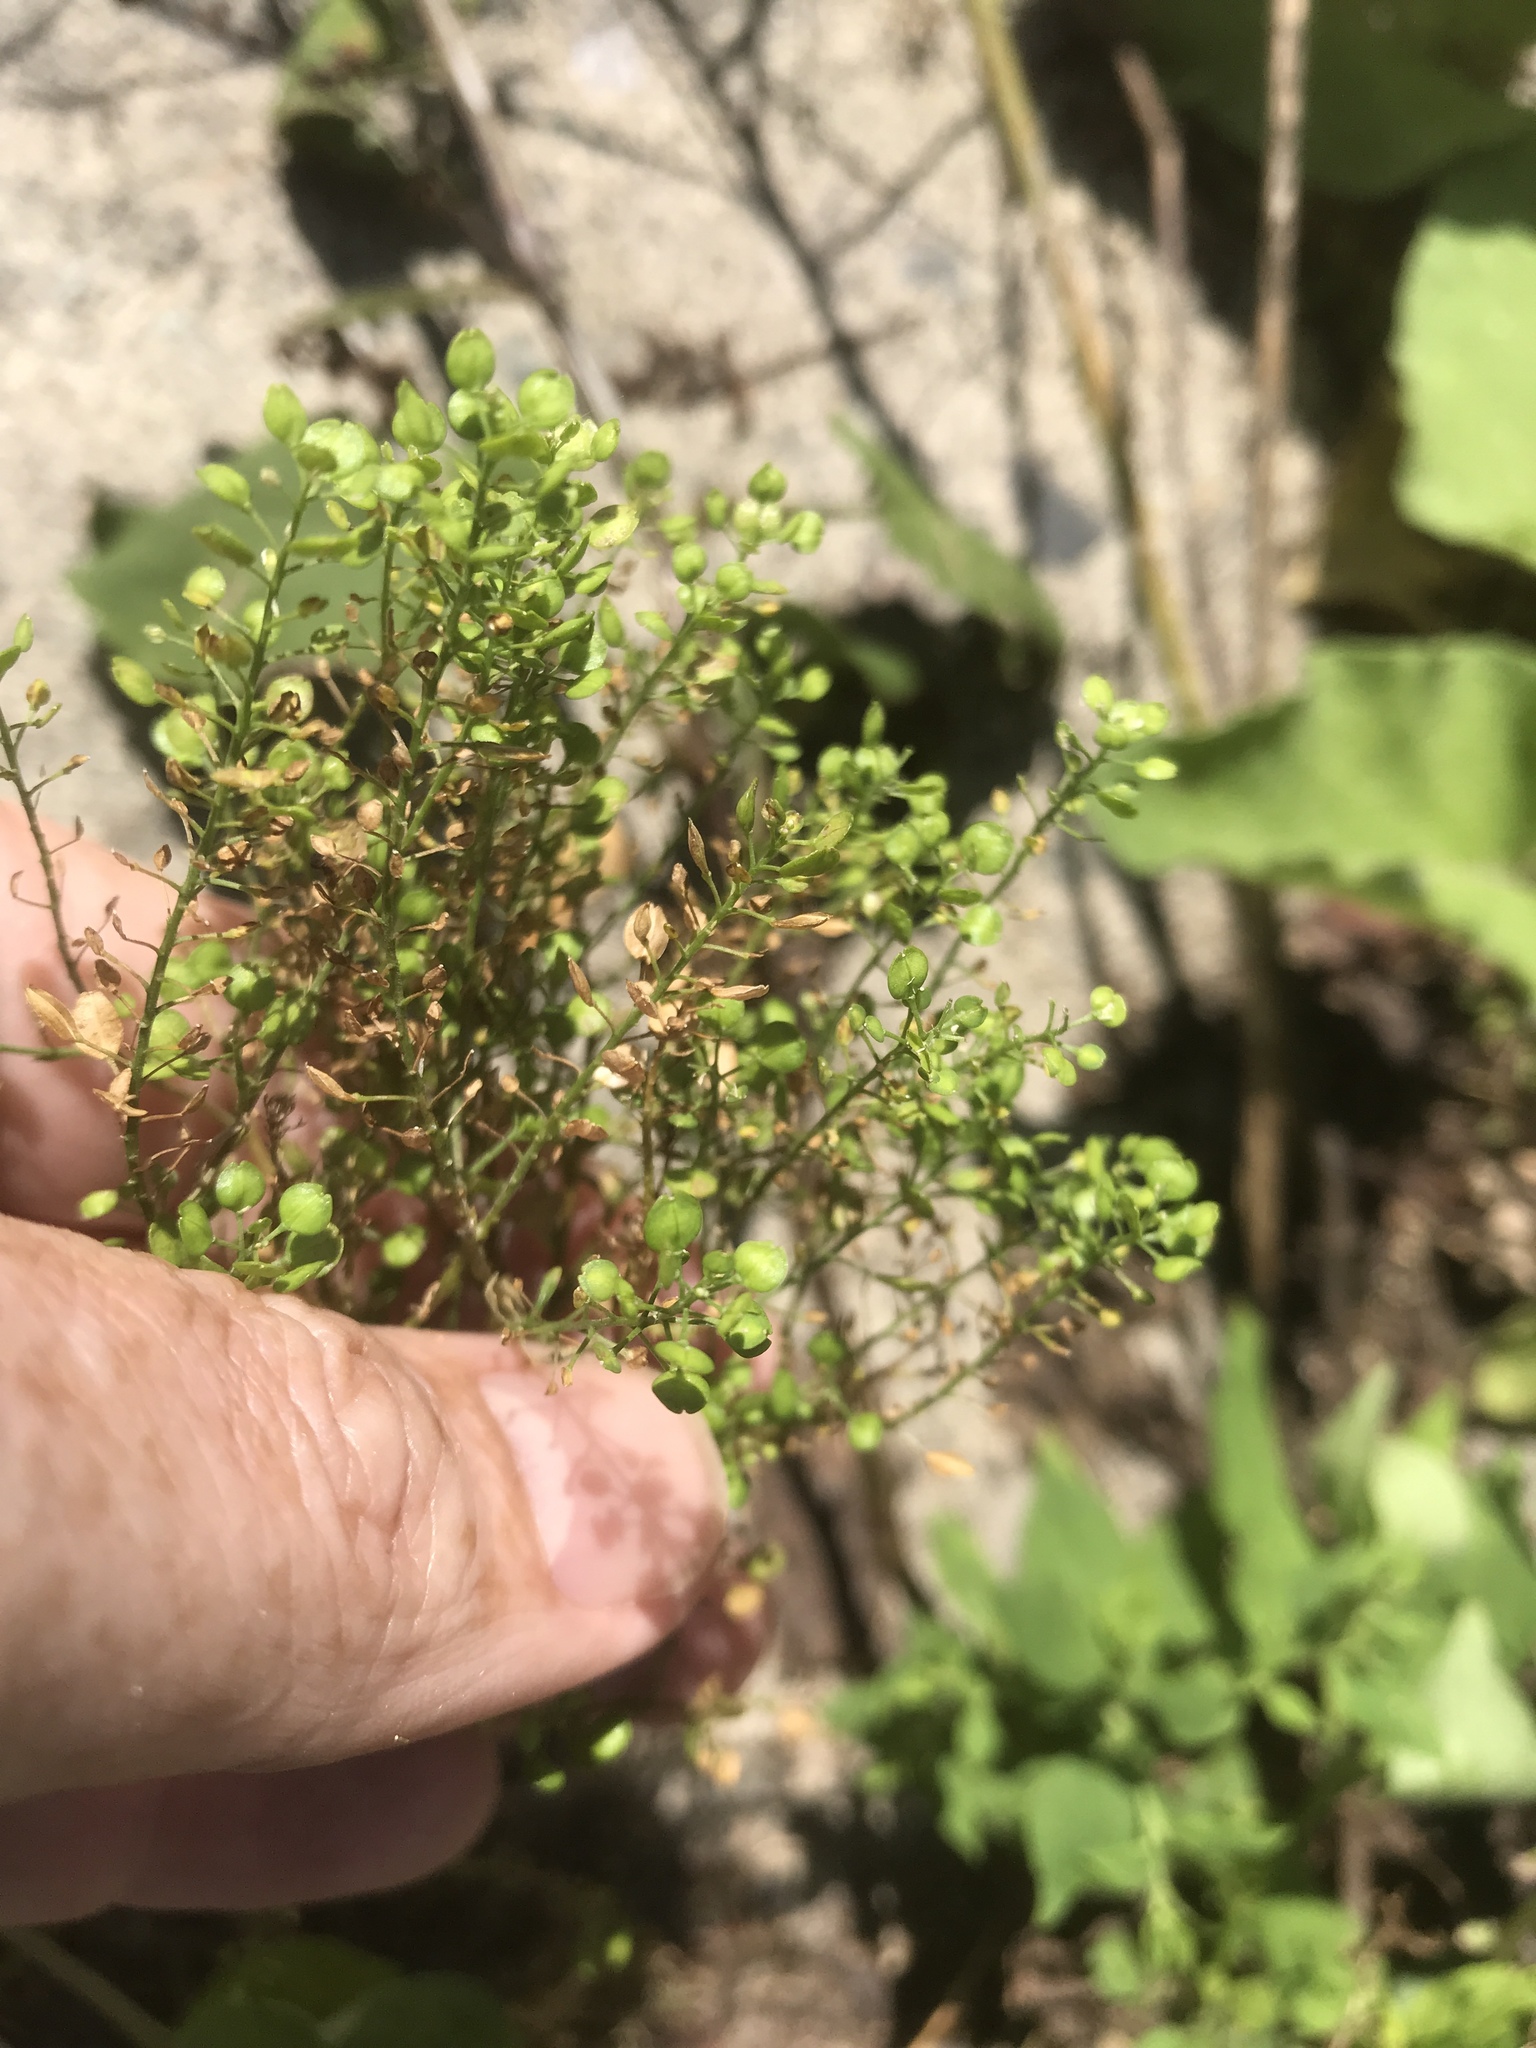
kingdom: Plantae
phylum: Tracheophyta
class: Magnoliopsida
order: Brassicales
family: Brassicaceae
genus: Lepidium
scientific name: Lepidium virginicum
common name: Least pepperwort
